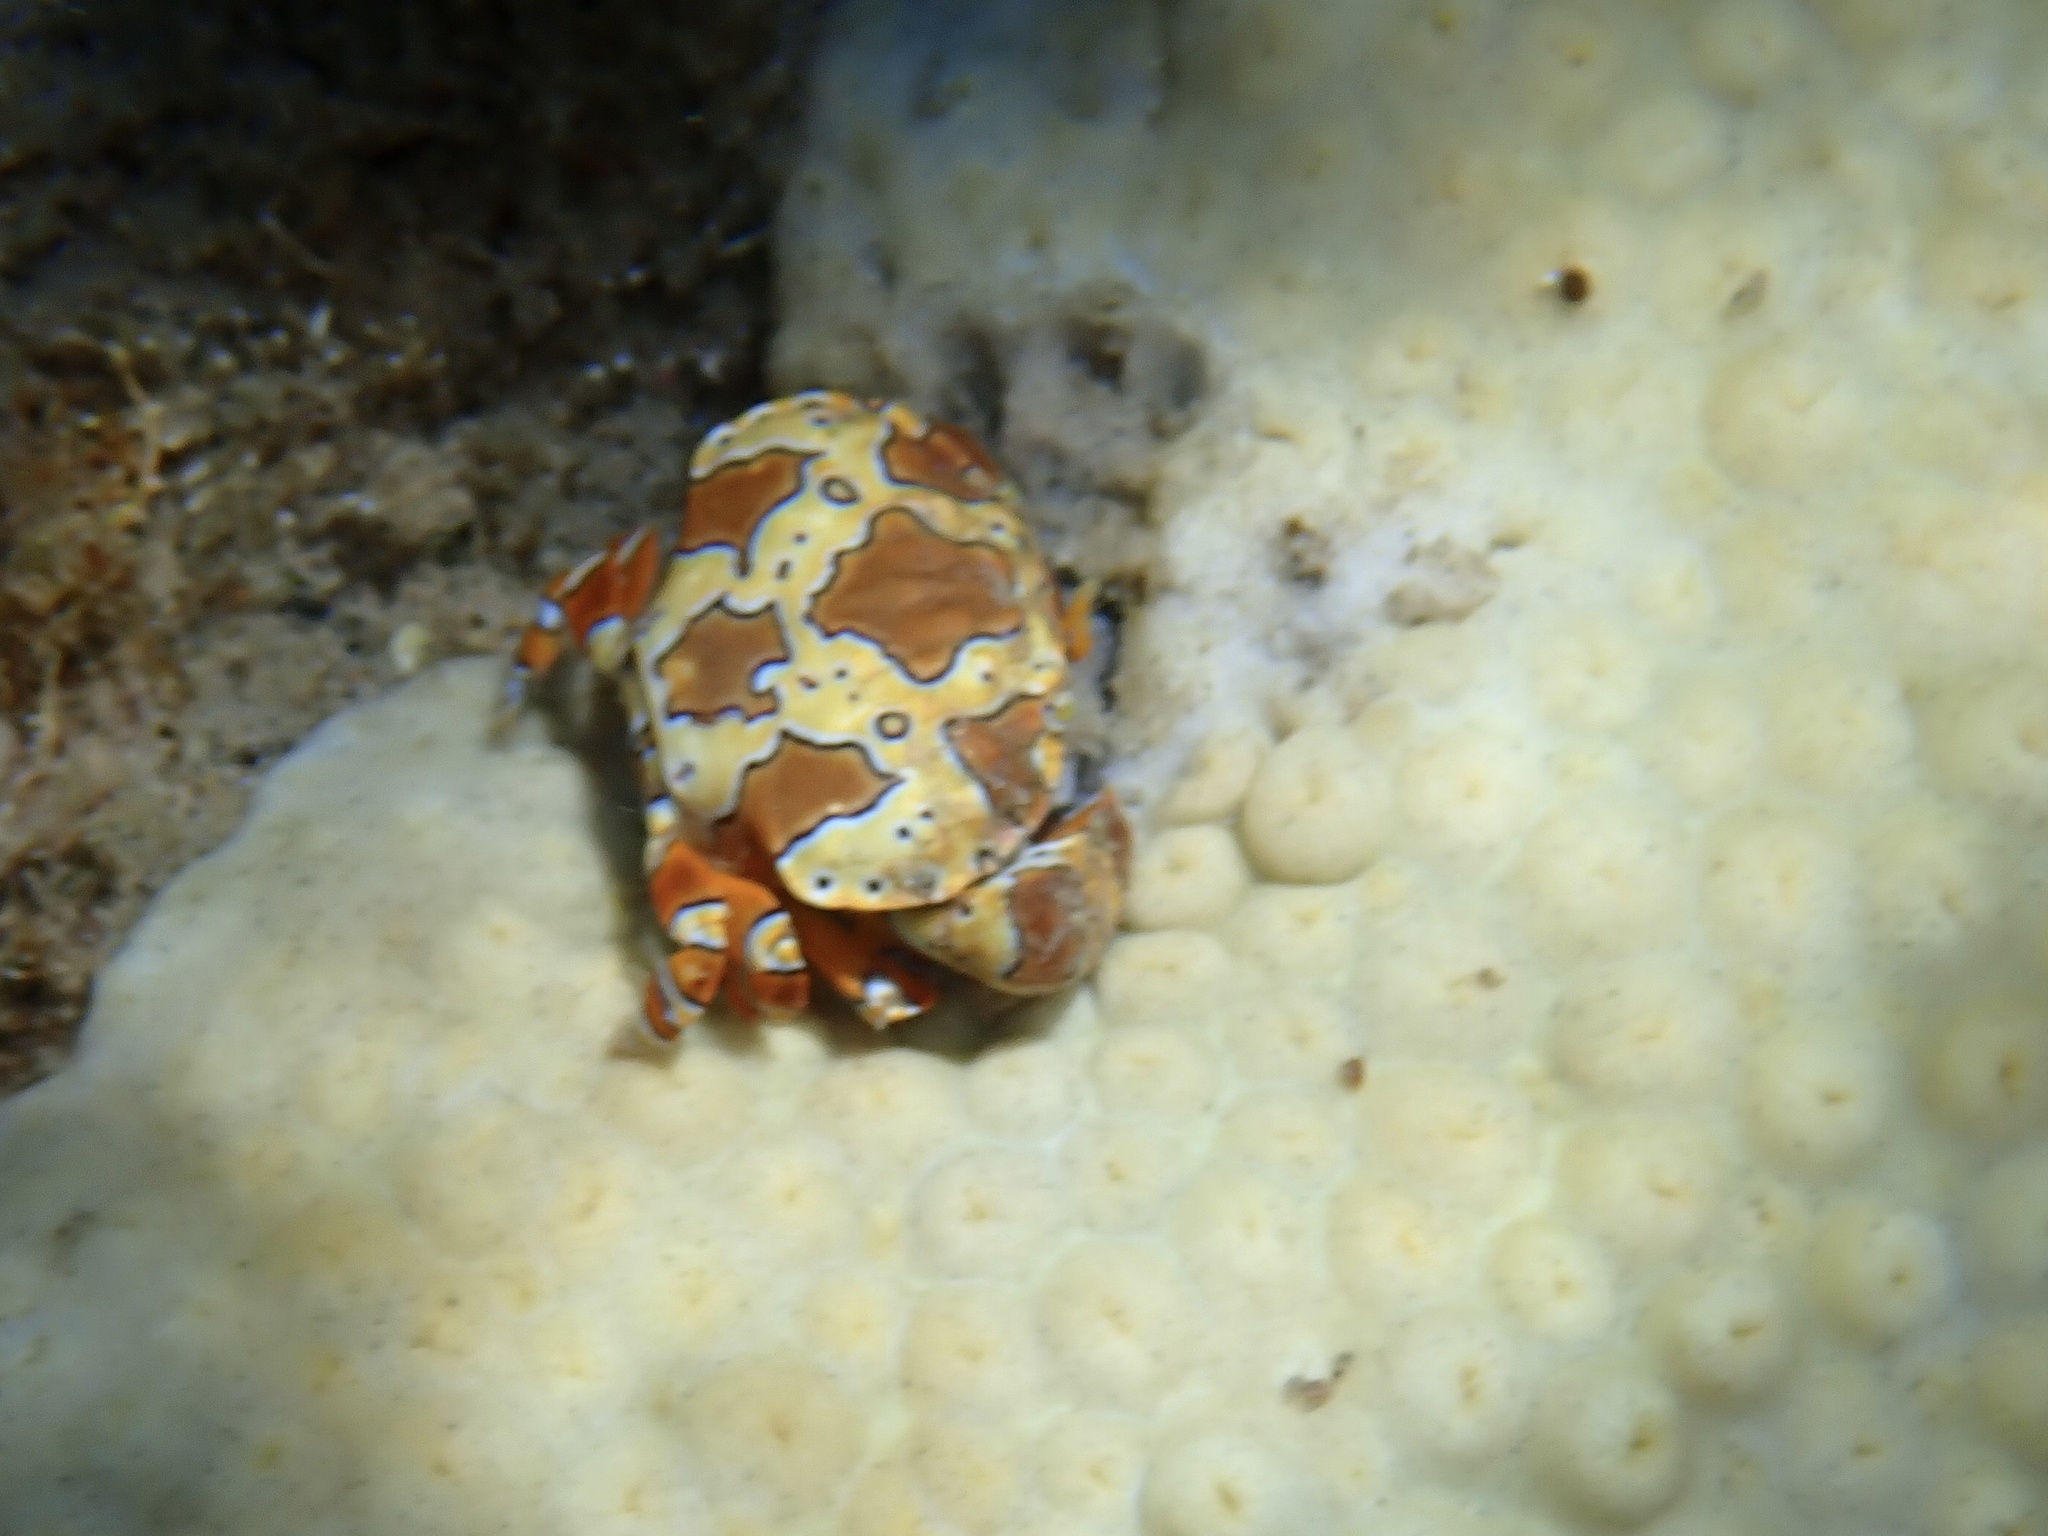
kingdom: Animalia
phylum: Arthropoda
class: Malacostraca
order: Decapoda
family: Xanthidae
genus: Platypodiella
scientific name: Platypodiella spectabilis
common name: Herbst's platypodia
